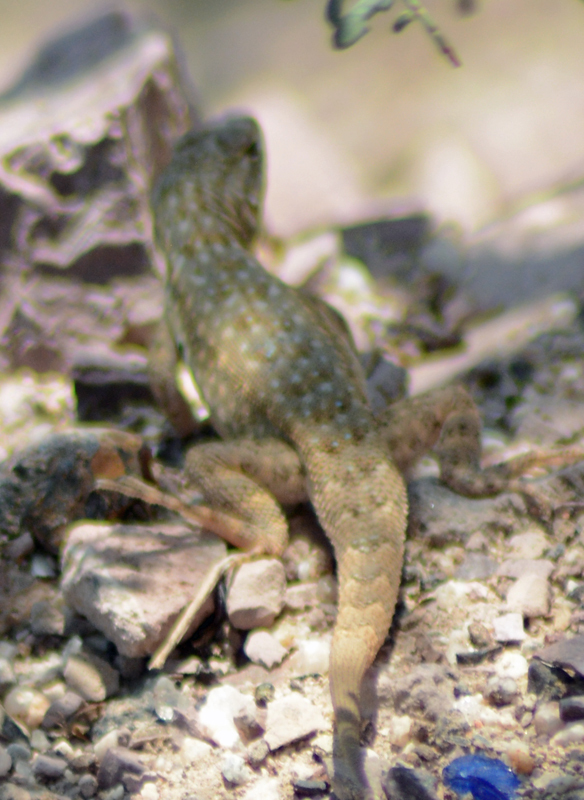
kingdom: Animalia
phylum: Chordata
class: Squamata
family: Phrynosomatidae
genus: Uta
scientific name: Uta stansburiana
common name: Side-blotched lizard
